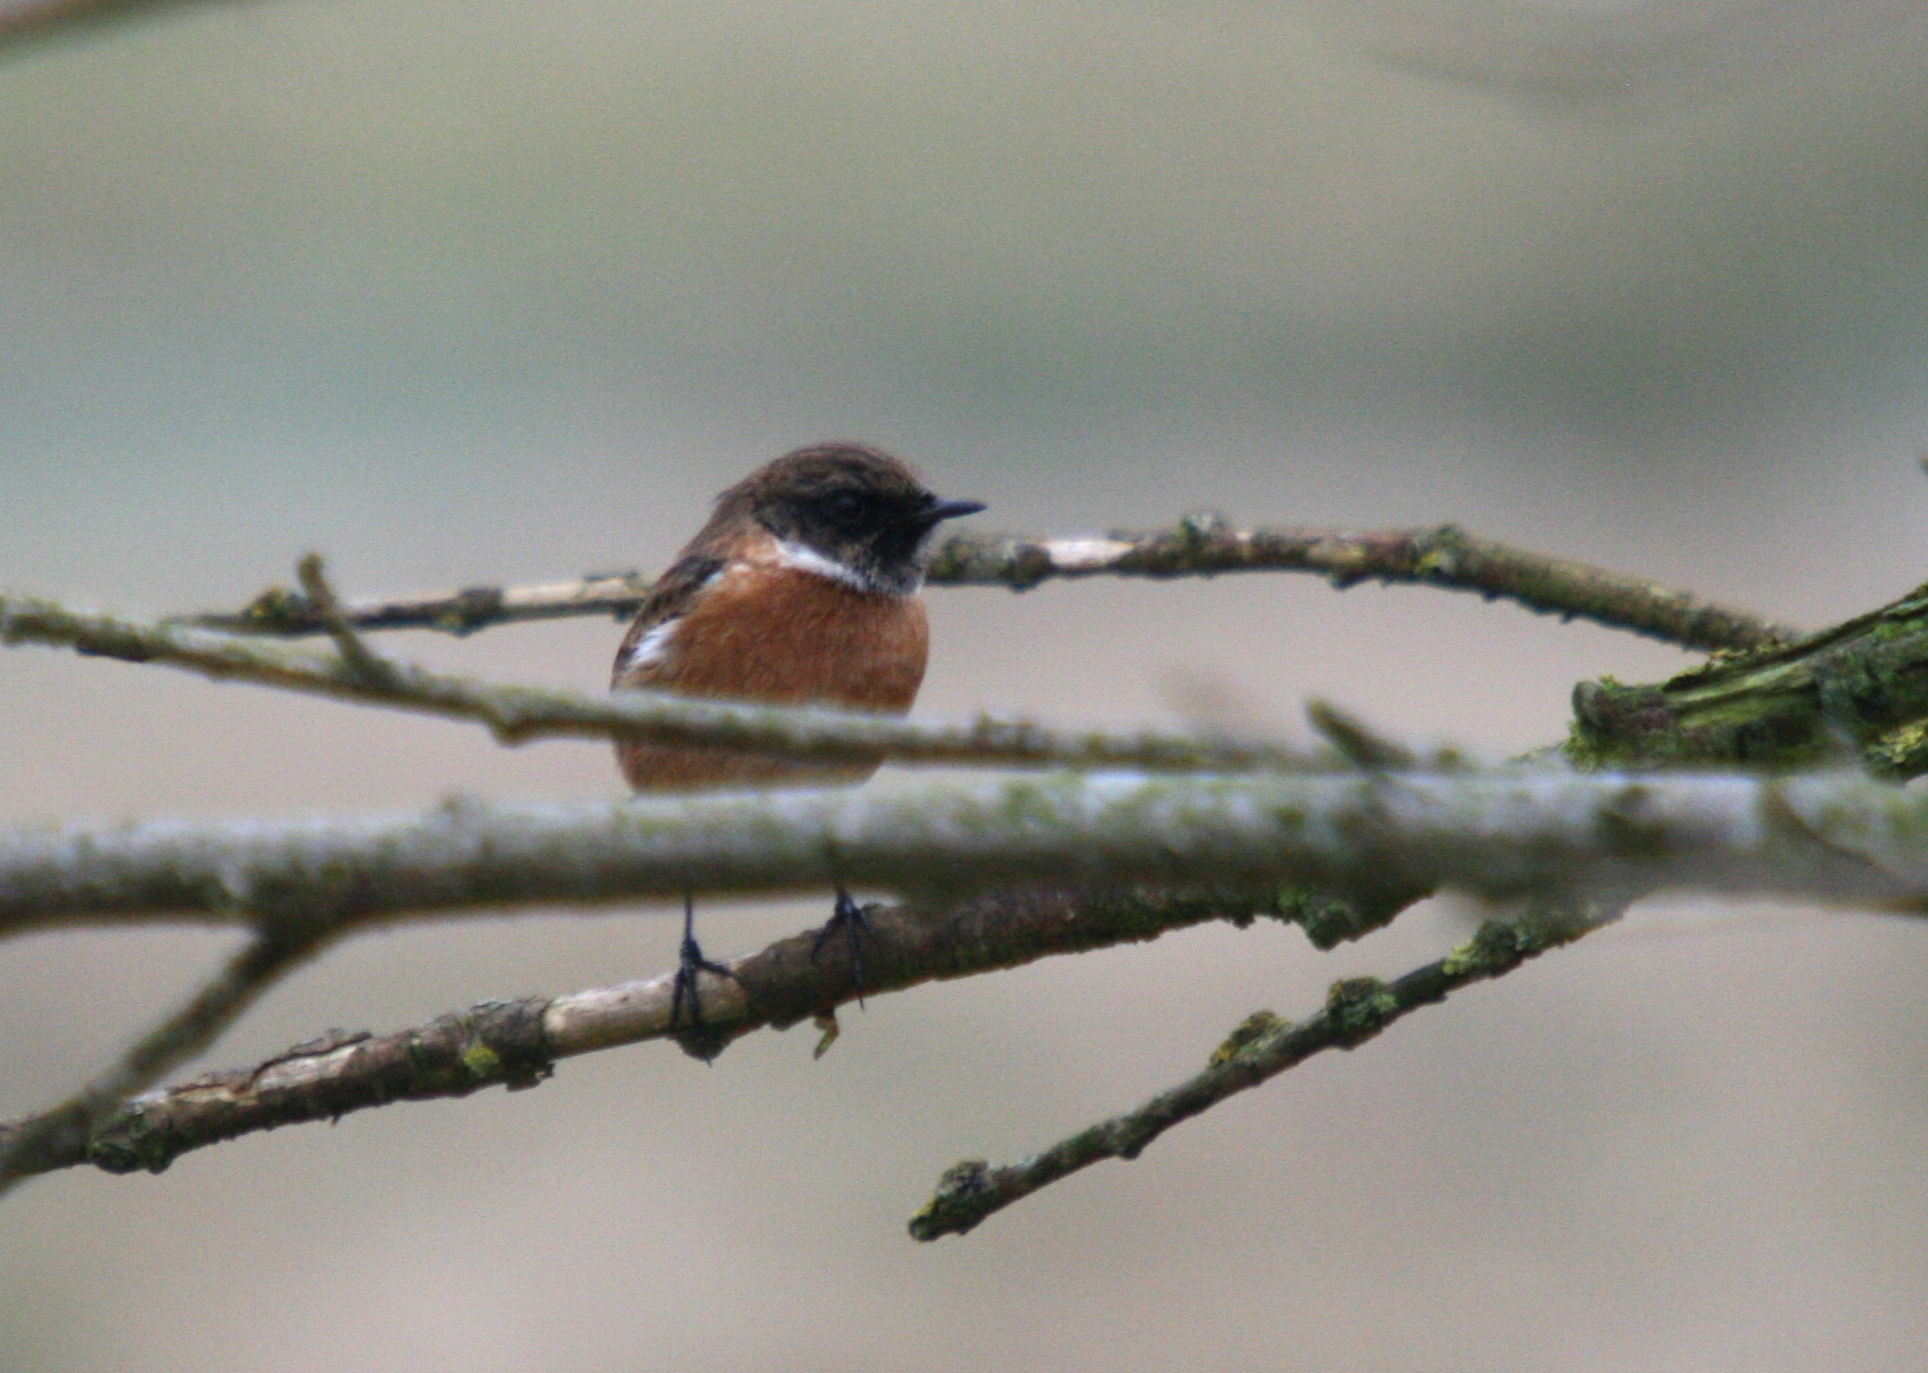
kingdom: Animalia
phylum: Chordata
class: Aves
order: Passeriformes
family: Muscicapidae
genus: Saxicola
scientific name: Saxicola rubicola
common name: European stonechat
